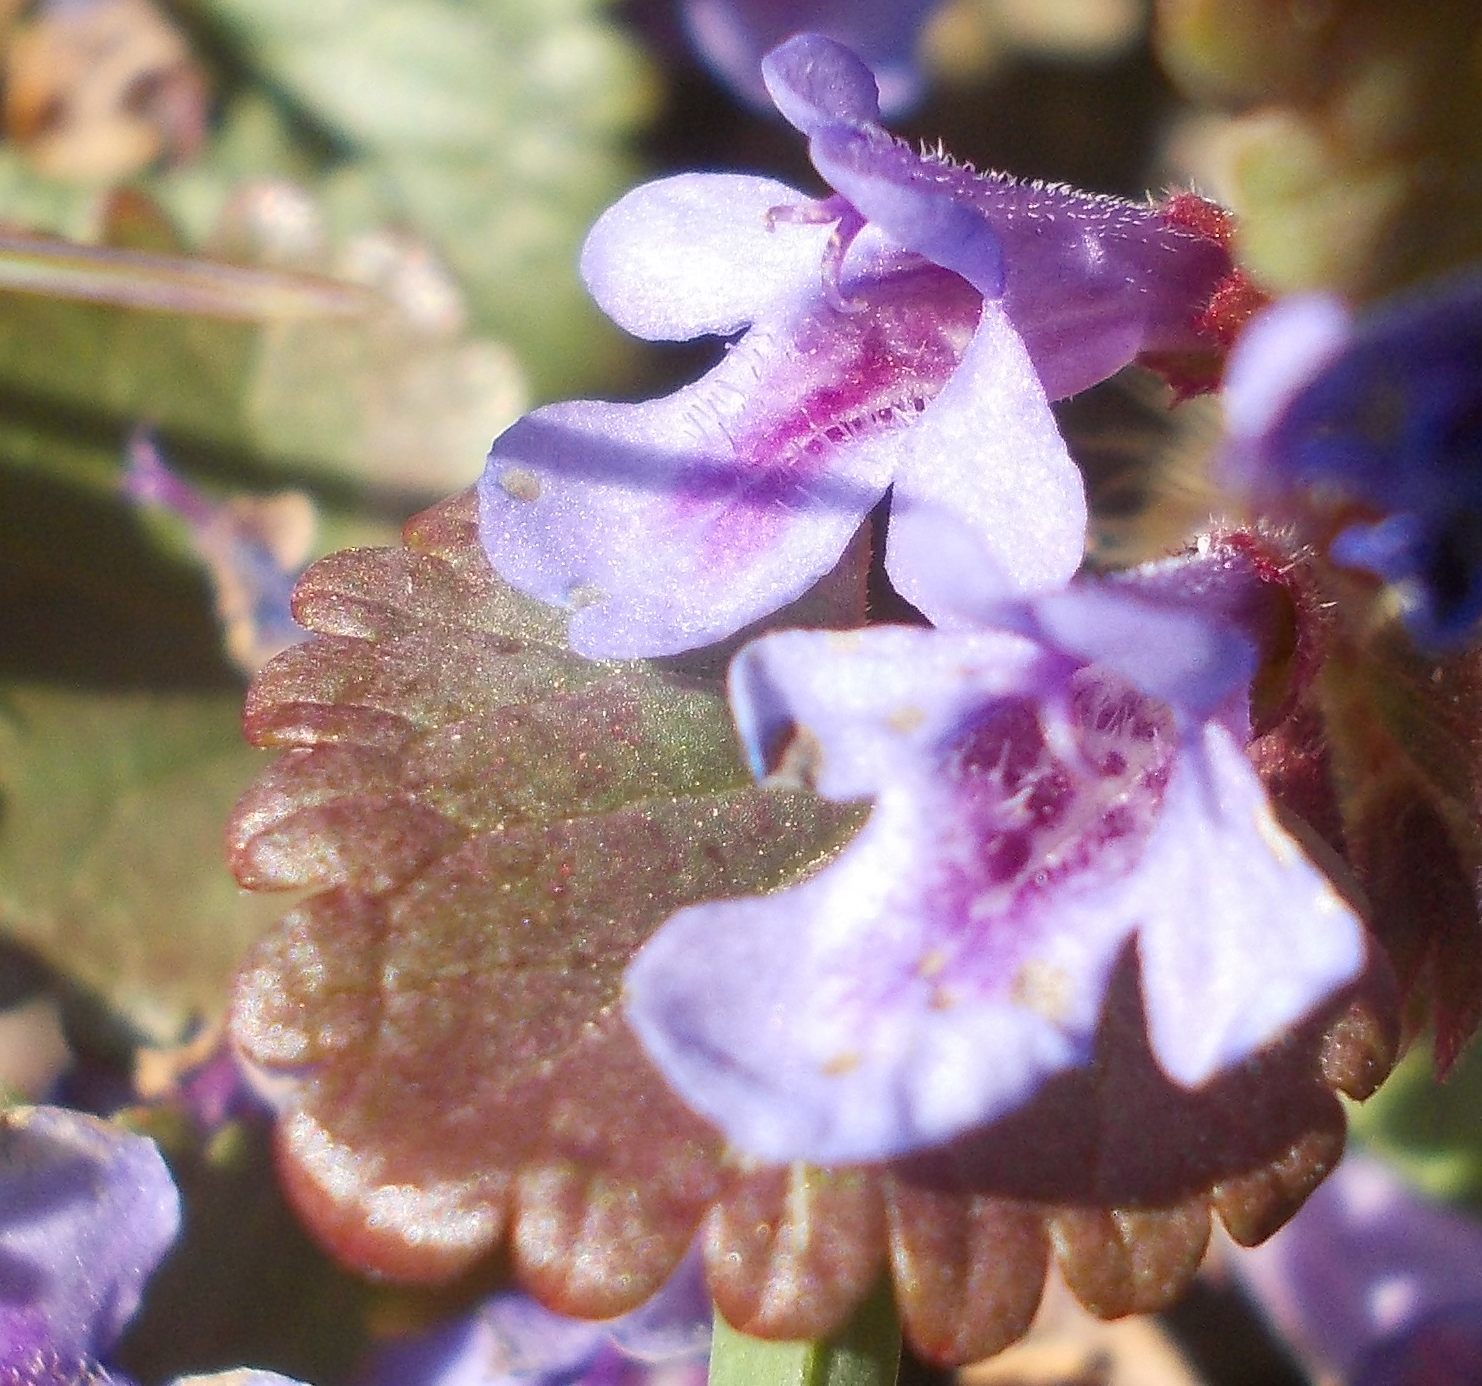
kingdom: Plantae
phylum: Tracheophyta
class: Magnoliopsida
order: Lamiales
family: Lamiaceae
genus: Glechoma
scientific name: Glechoma hederacea
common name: Ground ivy
